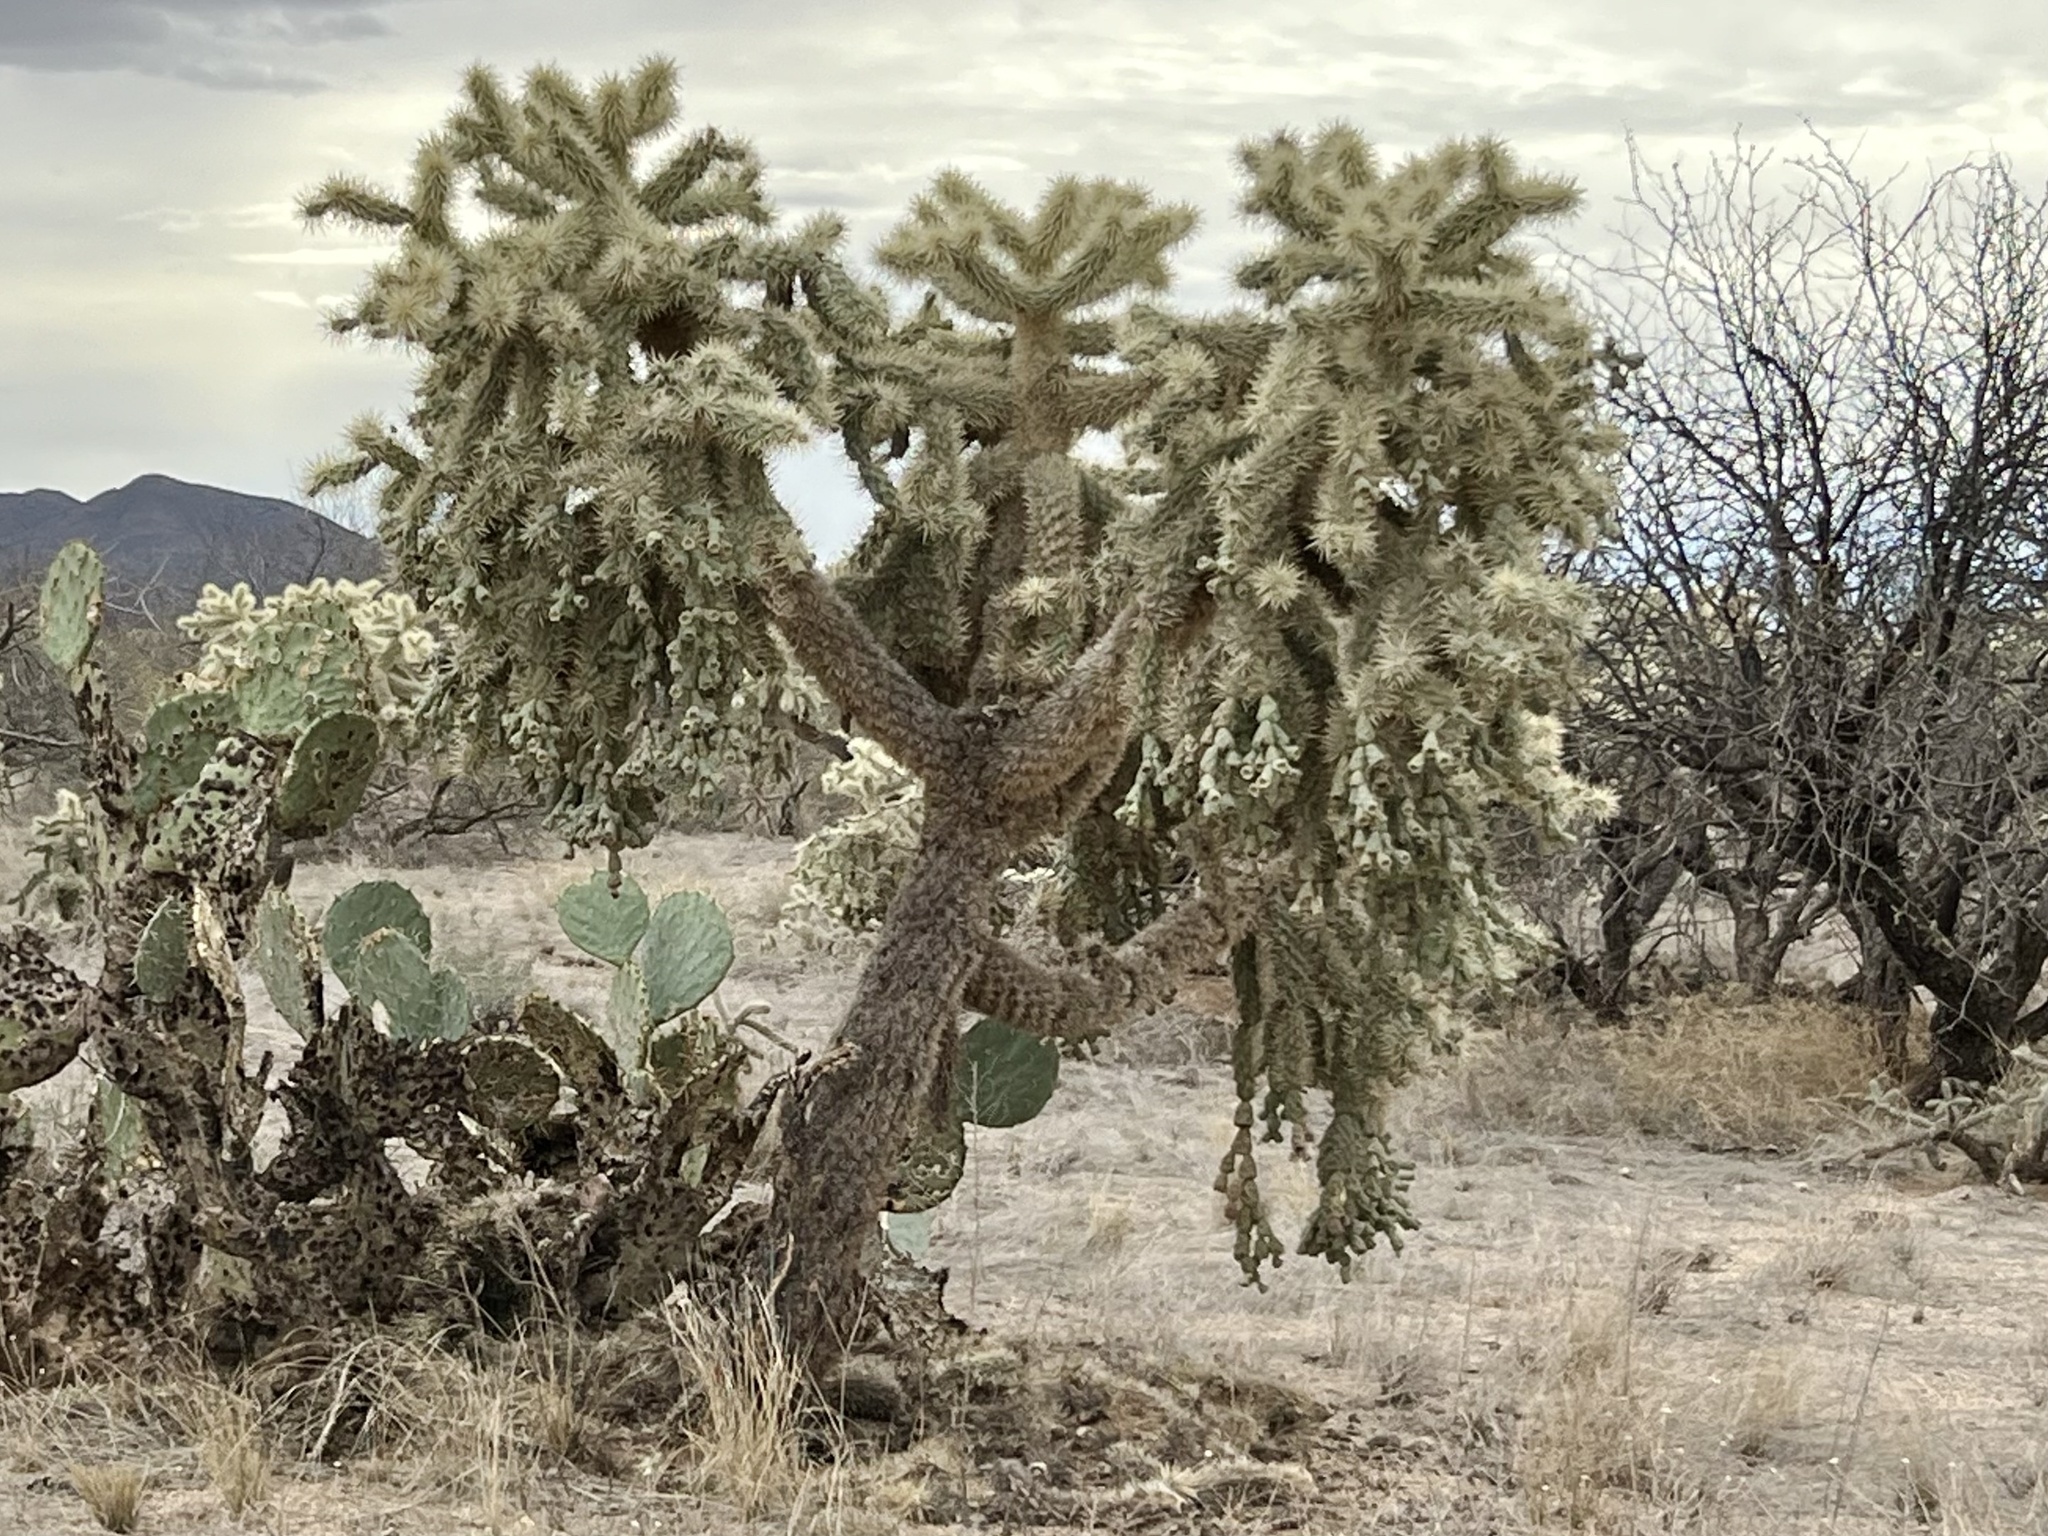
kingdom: Plantae
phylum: Tracheophyta
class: Magnoliopsida
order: Caryophyllales
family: Cactaceae
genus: Cylindropuntia
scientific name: Cylindropuntia fulgida
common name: Jumping cholla
